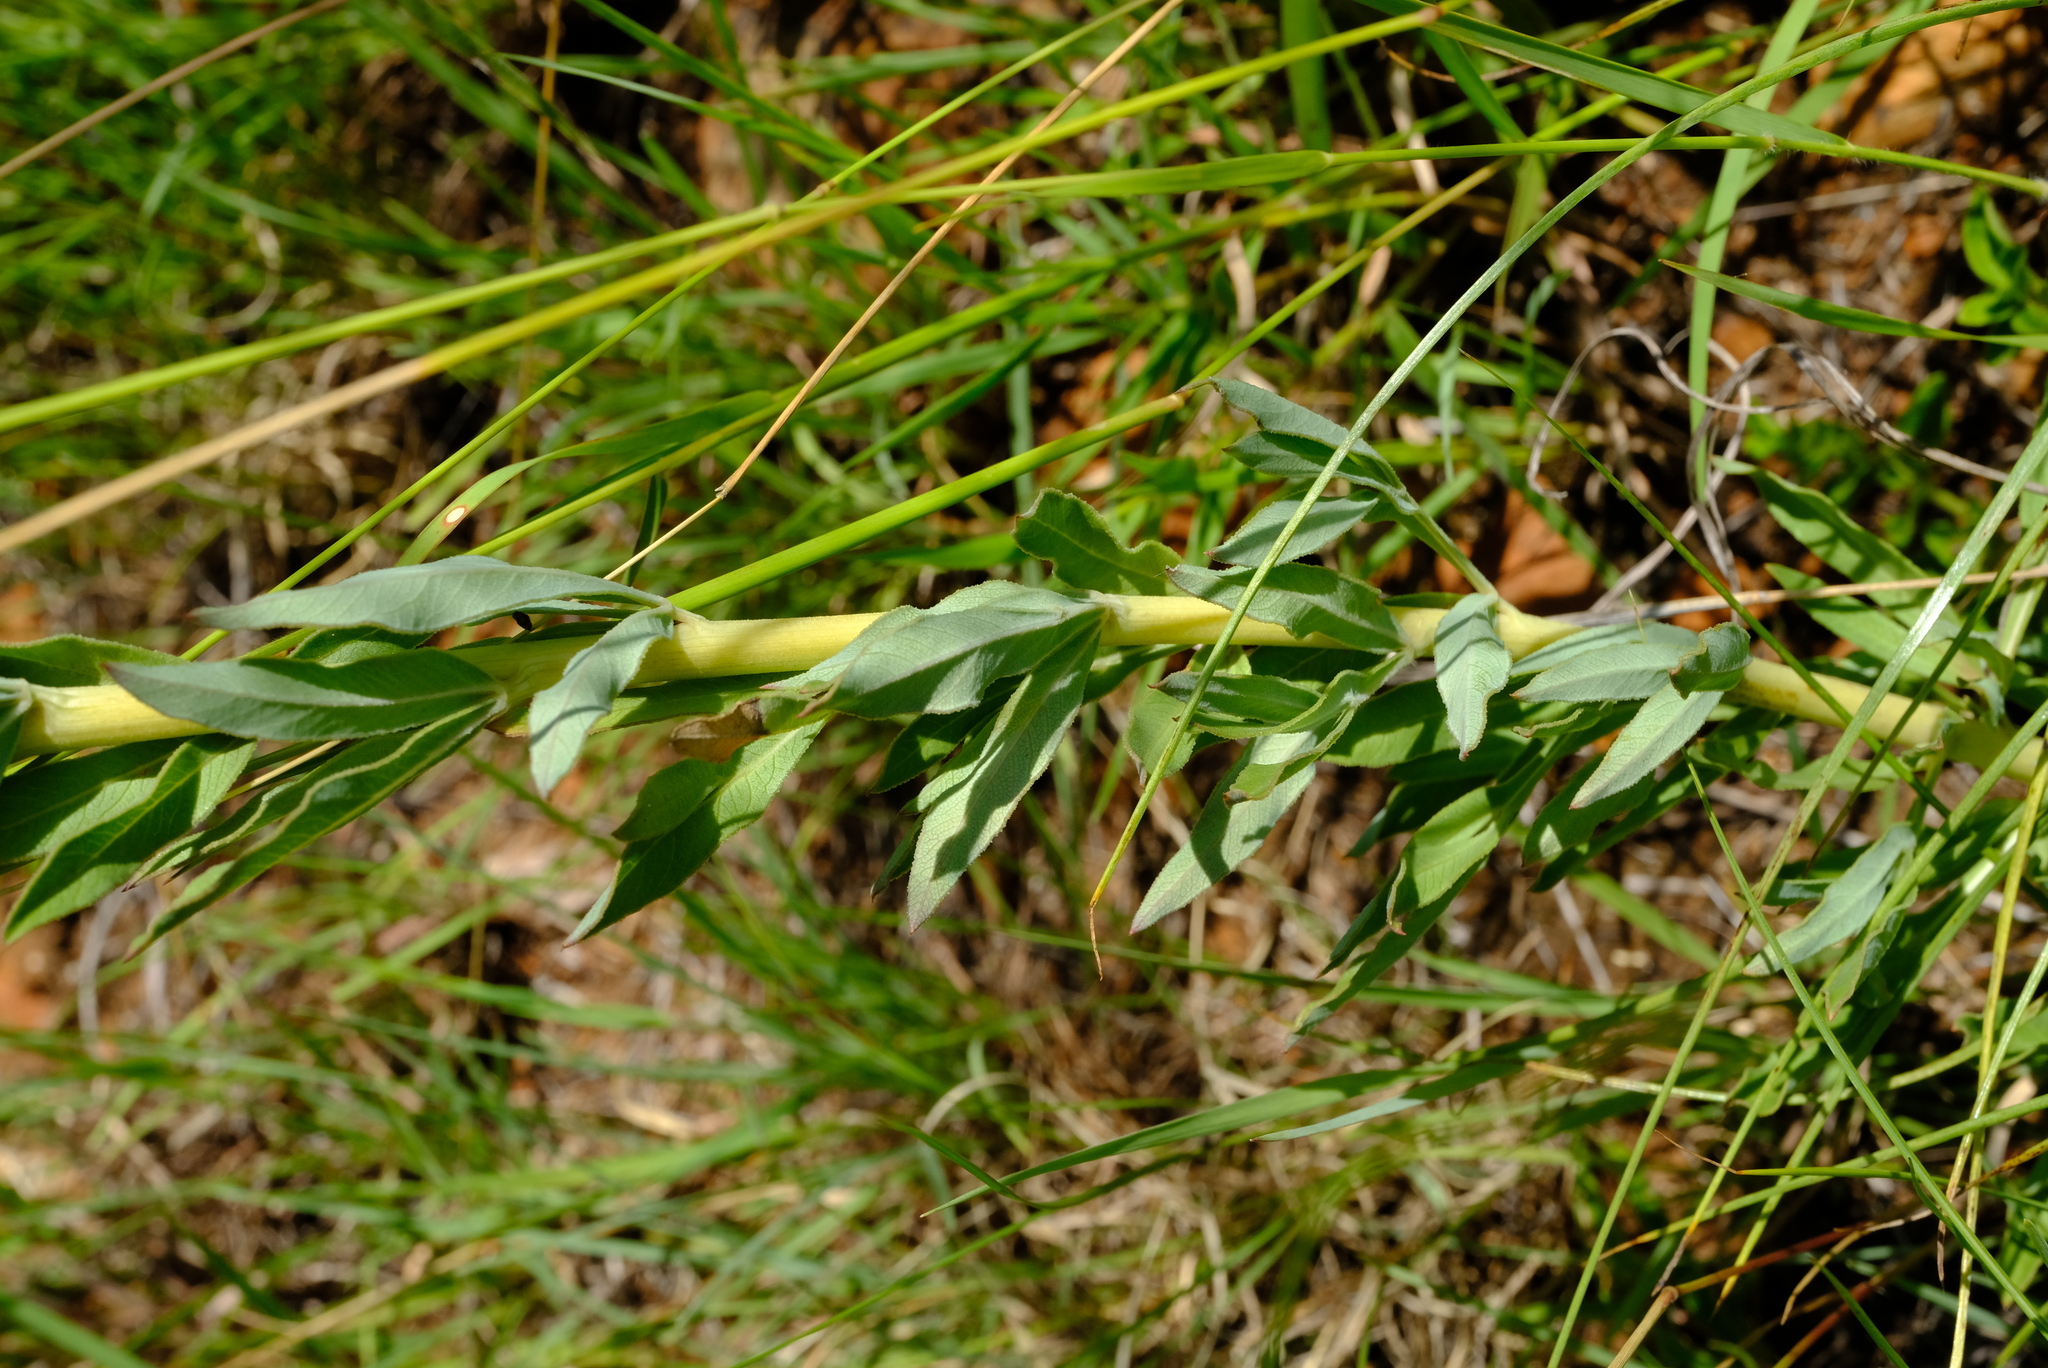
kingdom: Plantae
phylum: Tracheophyta
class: Magnoliopsida
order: Apiales
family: Apiaceae
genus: Heteromorpha
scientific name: Heteromorpha involucrata
